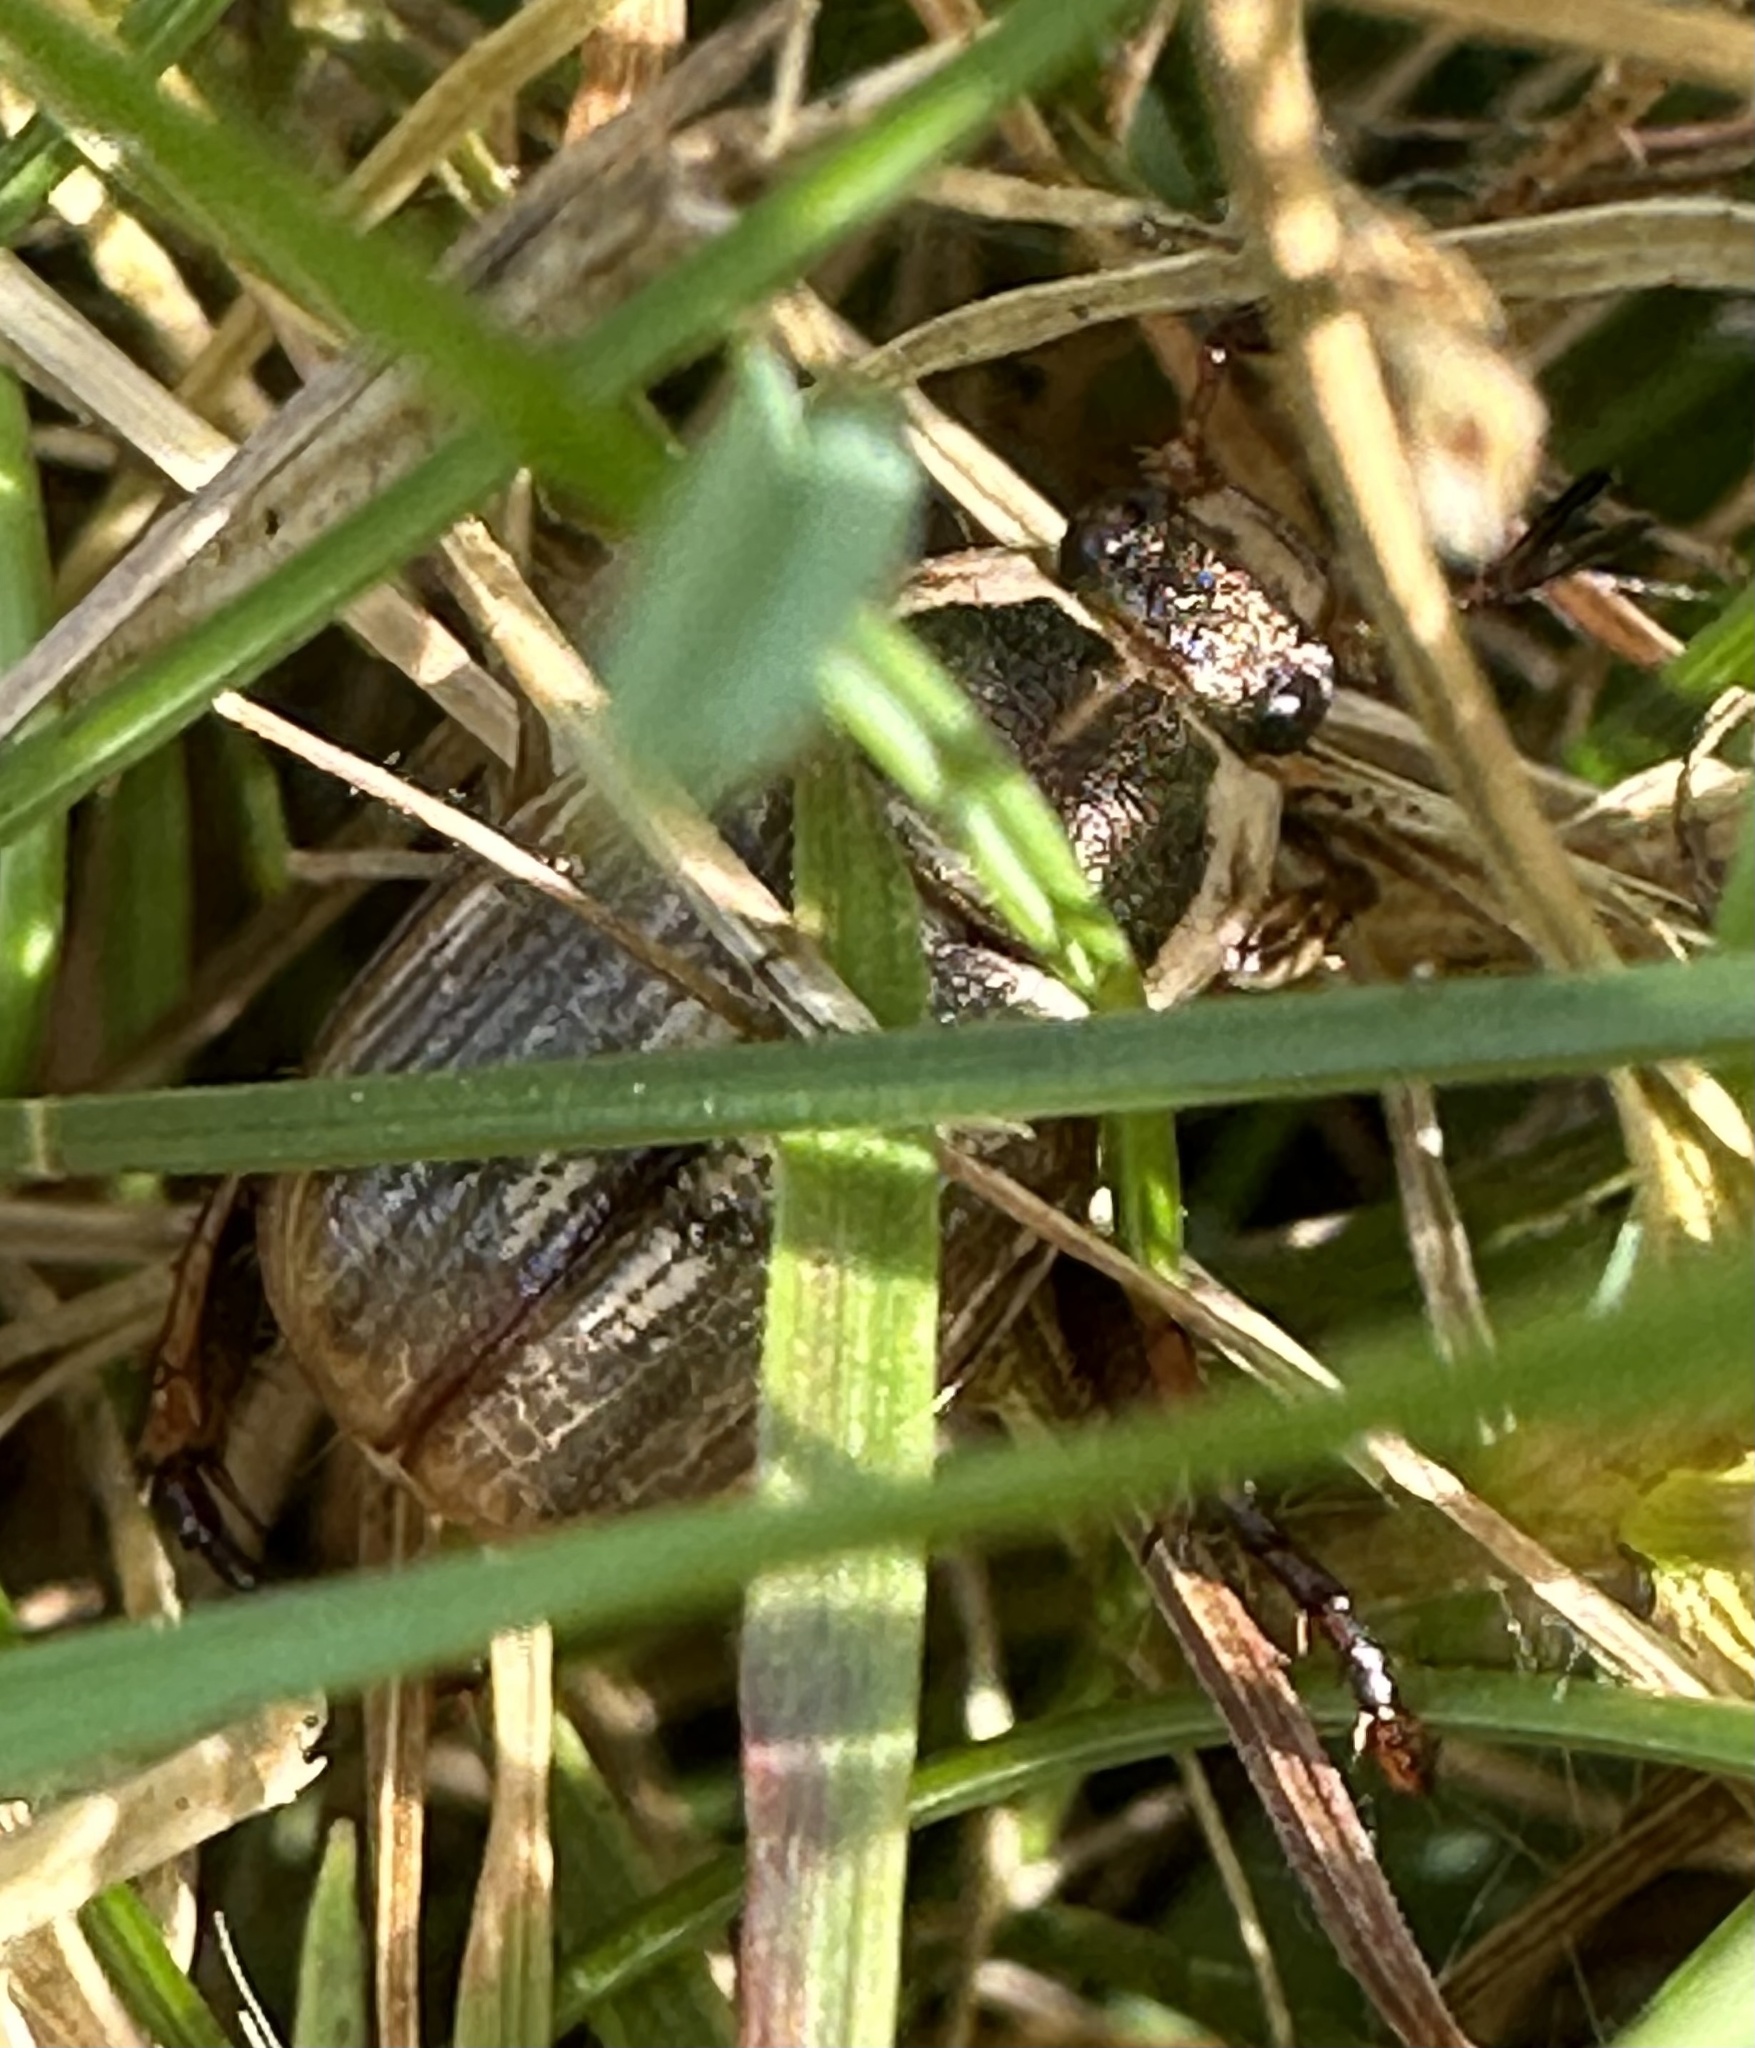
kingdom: Animalia
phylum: Arthropoda
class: Insecta
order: Coleoptera
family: Scarabaeidae
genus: Exomala
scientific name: Exomala orientalis
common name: Oriental beetle
